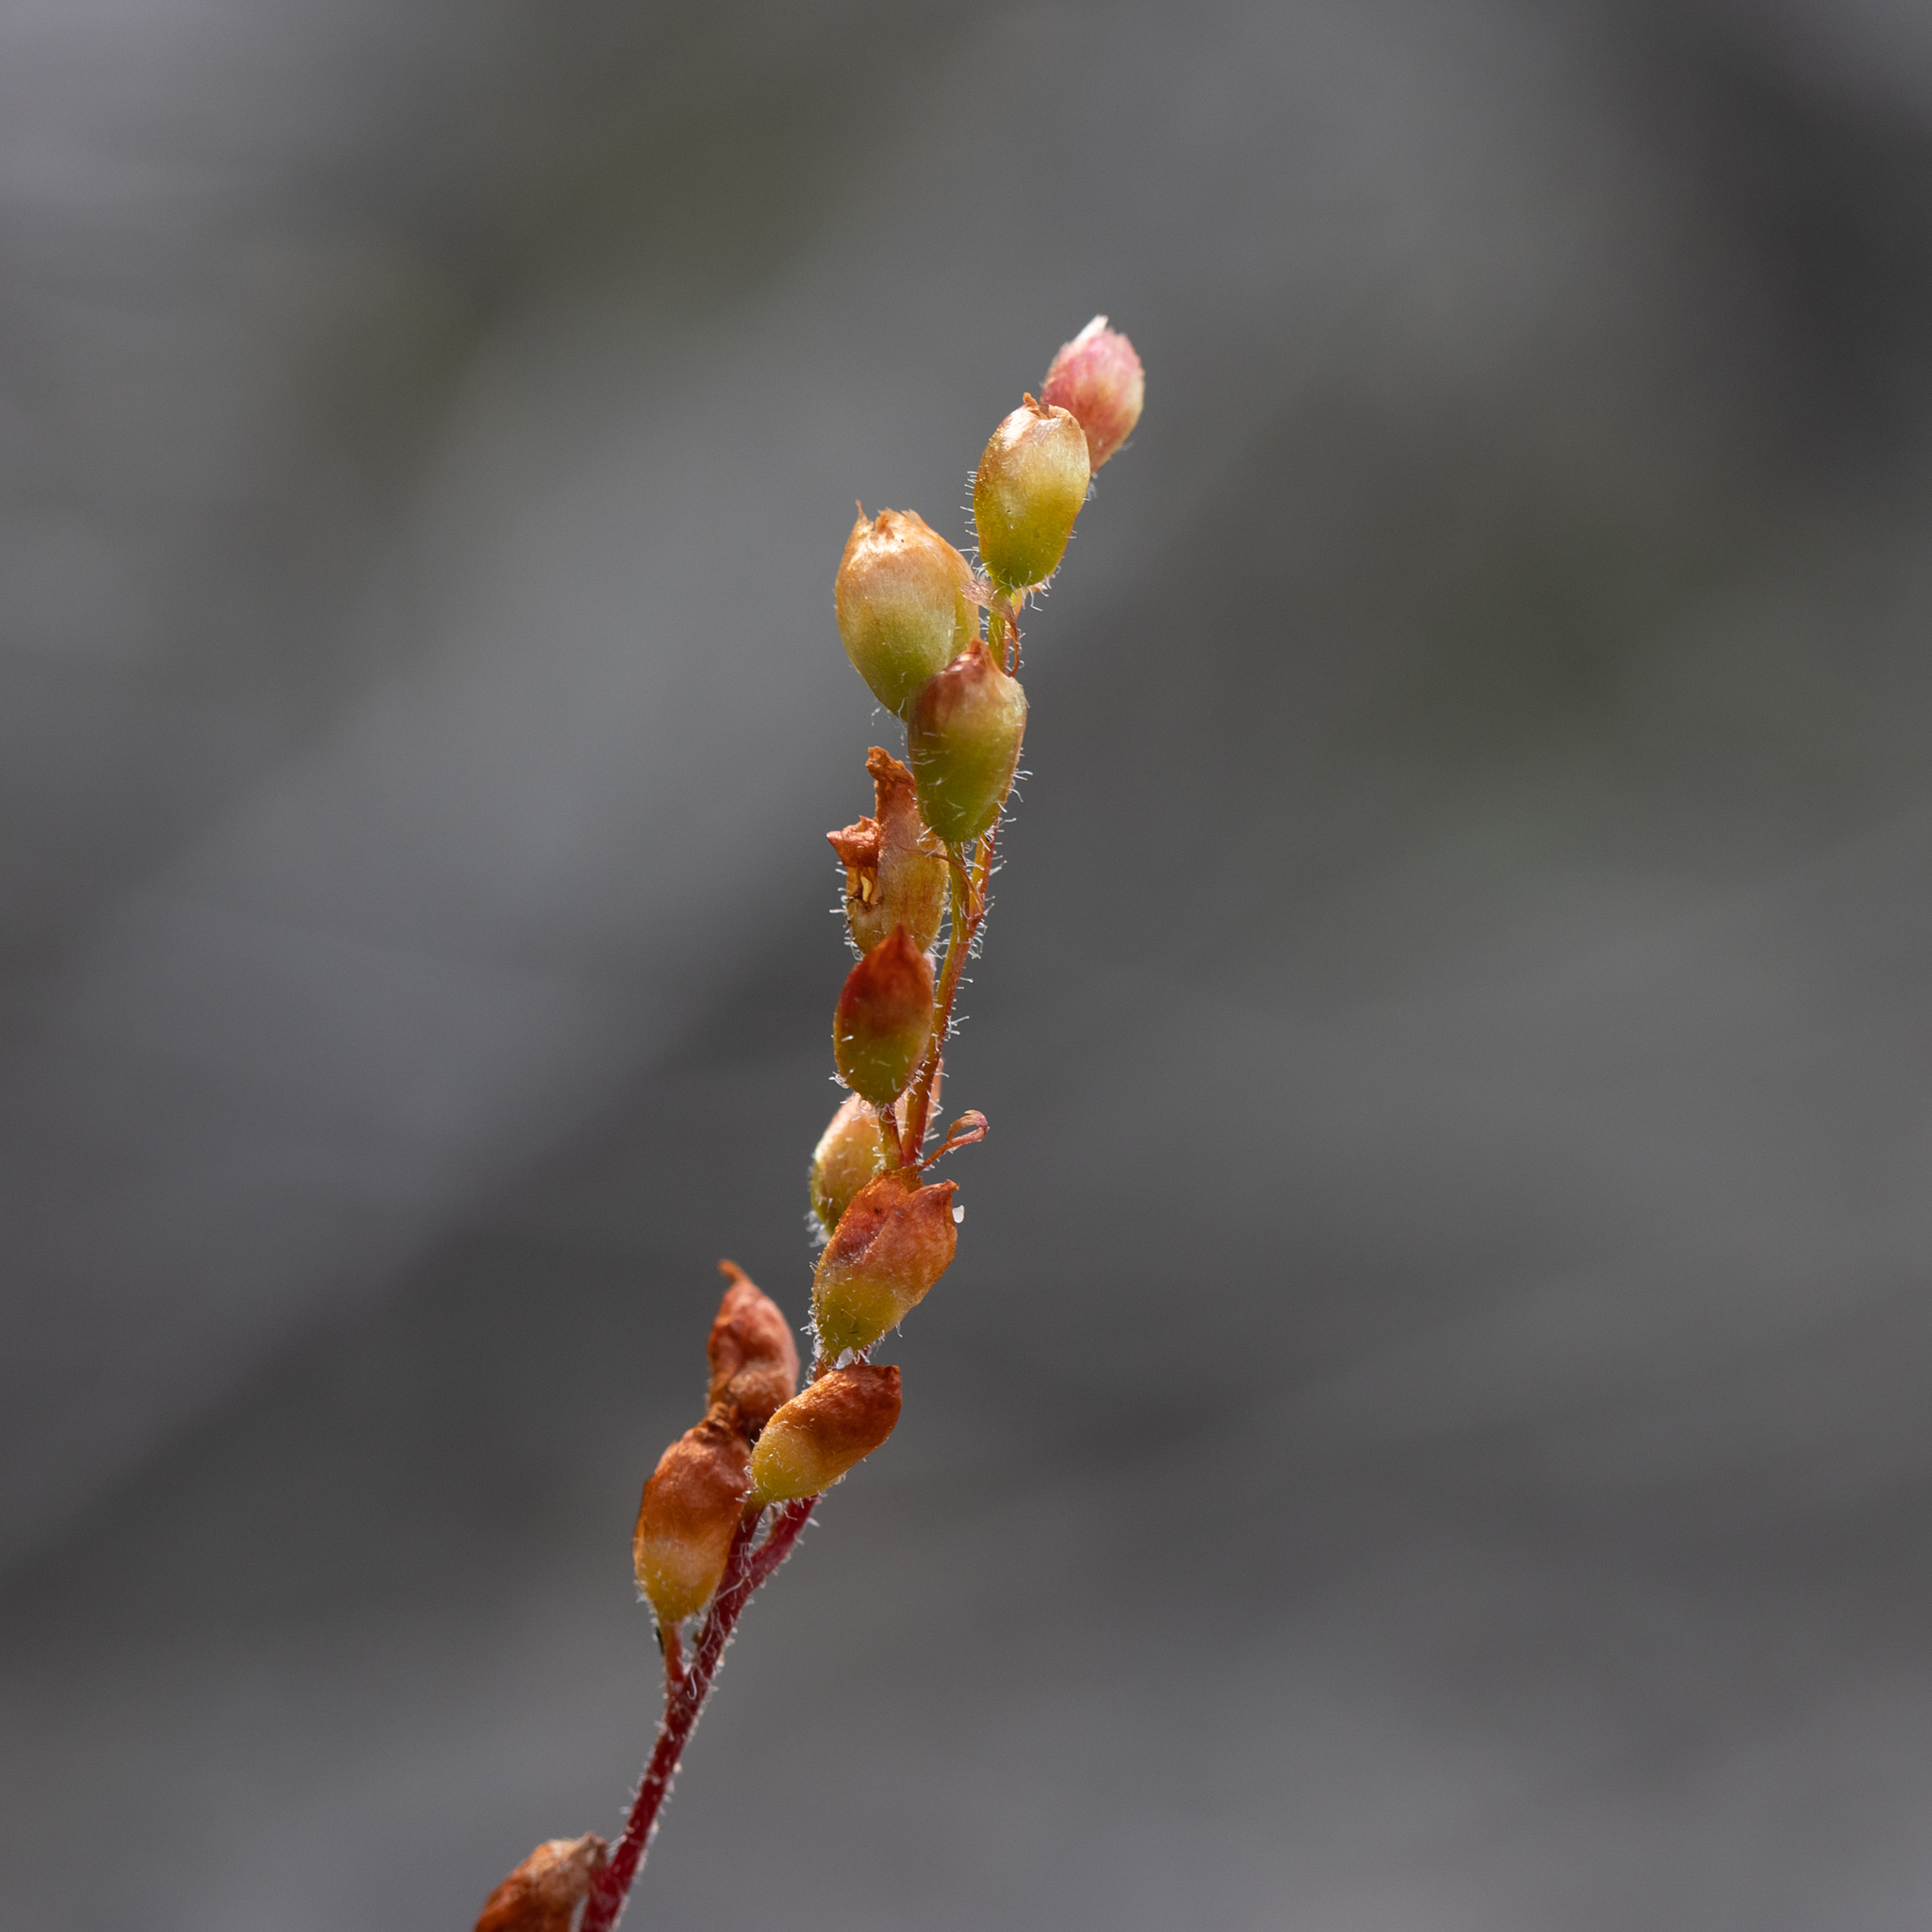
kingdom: Plantae
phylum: Tracheophyta
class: Magnoliopsida
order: Caryophyllales
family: Droseraceae
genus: Drosera
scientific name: Drosera scorpioides
